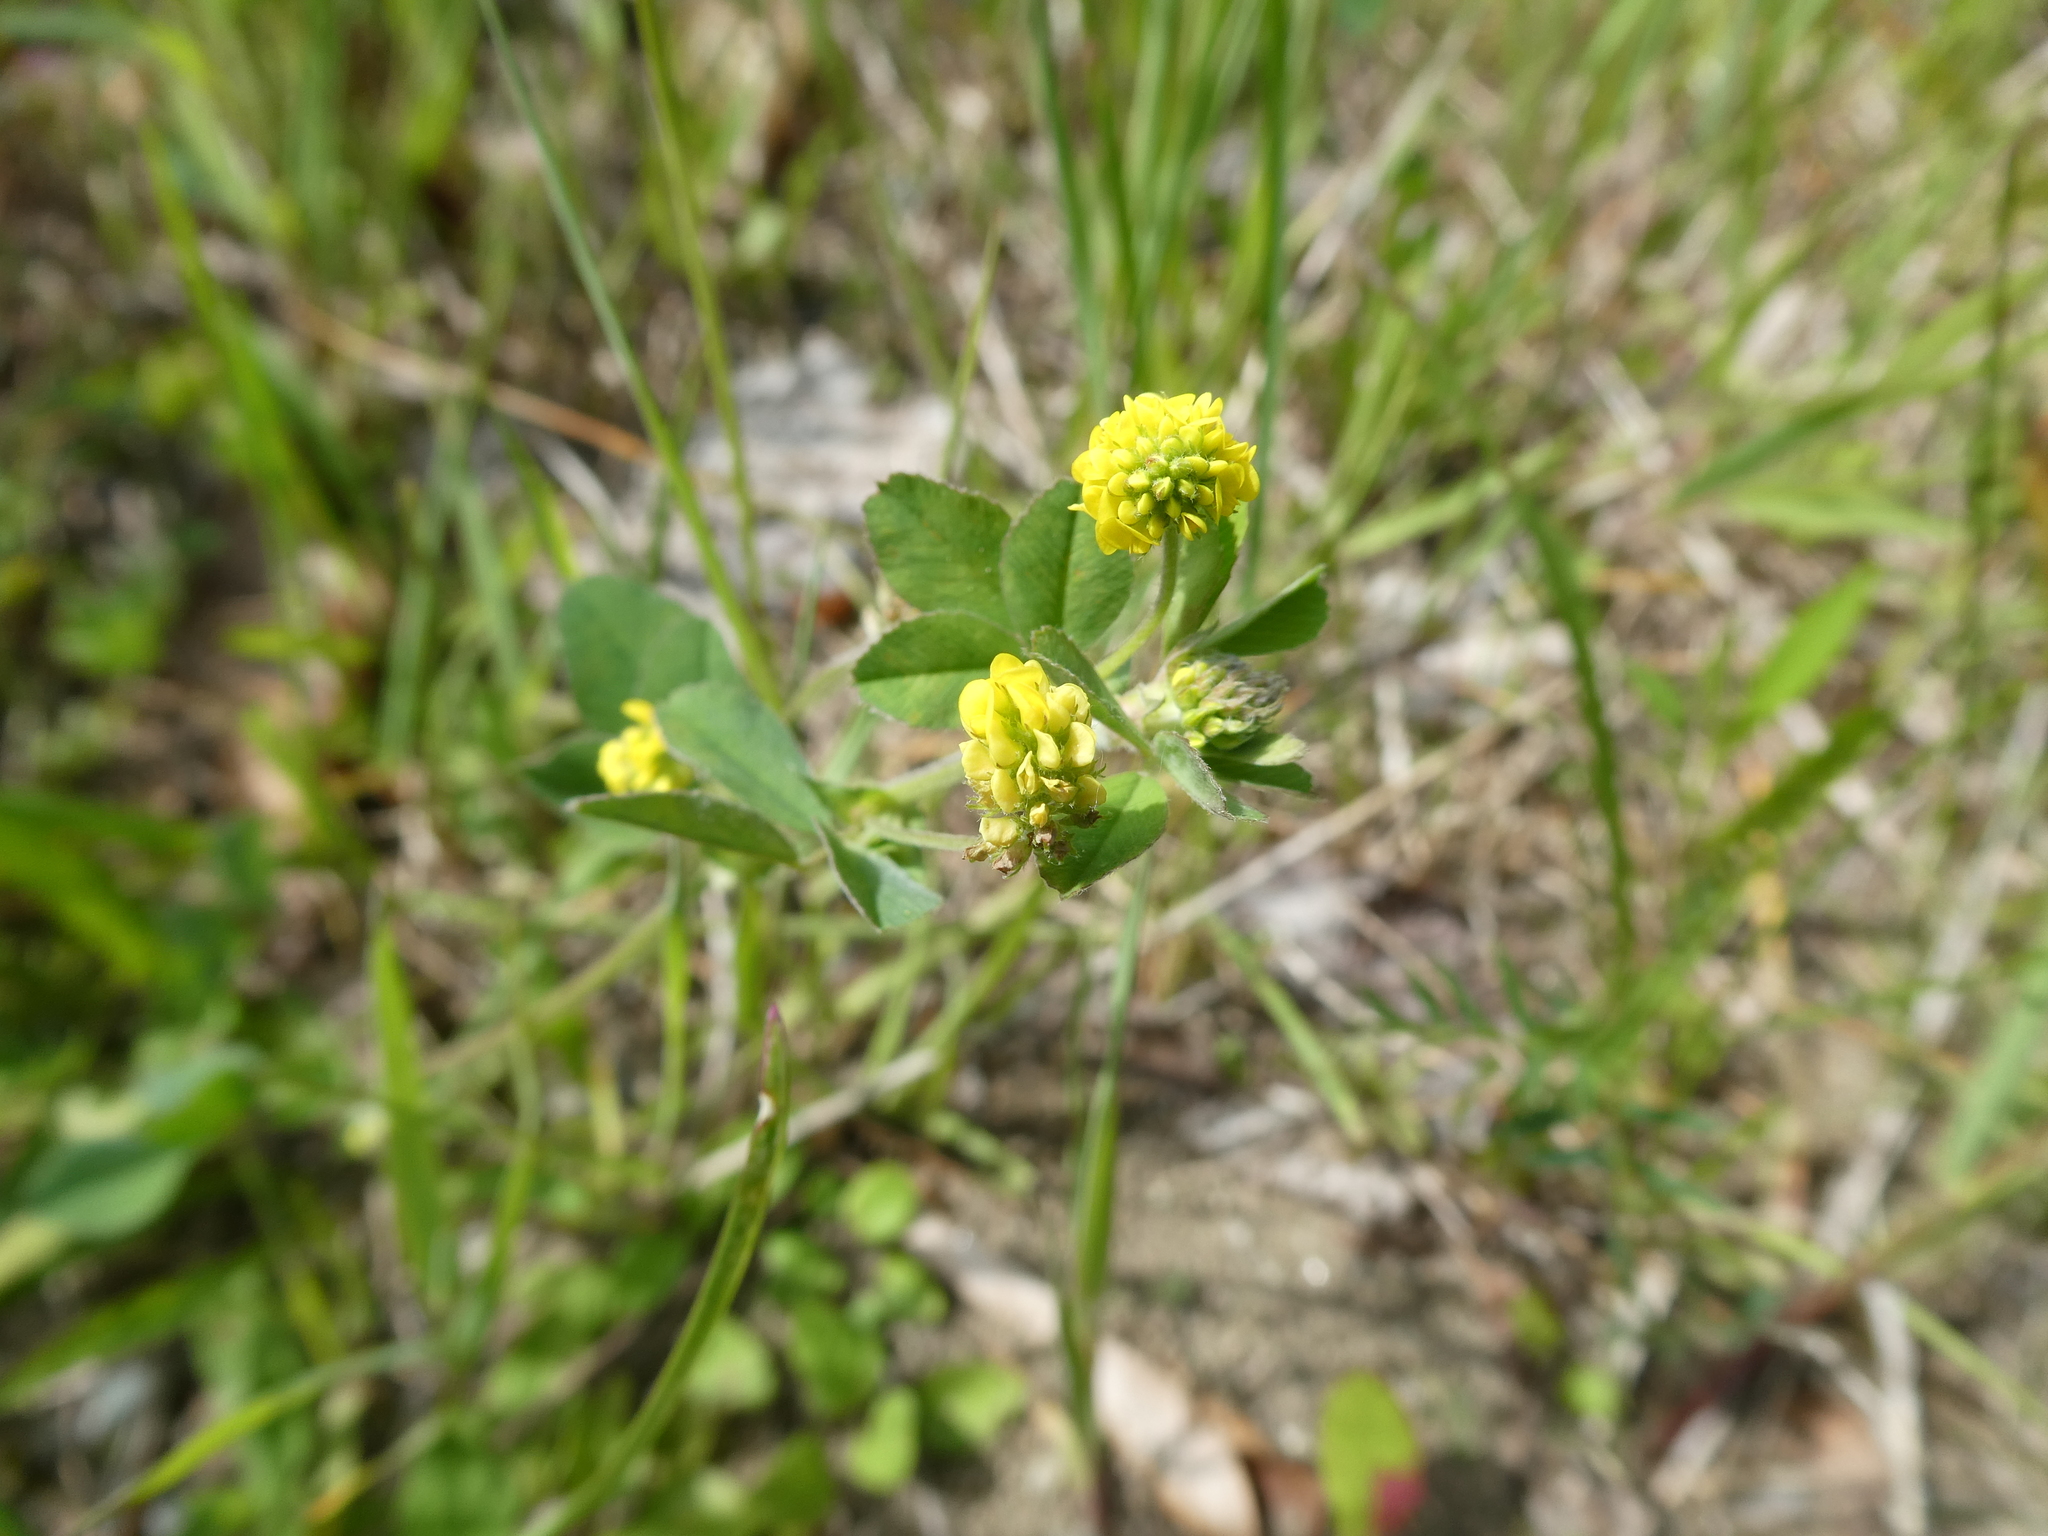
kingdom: Plantae
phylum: Tracheophyta
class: Magnoliopsida
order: Fabales
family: Fabaceae
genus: Medicago
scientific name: Medicago lupulina
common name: Black medick
